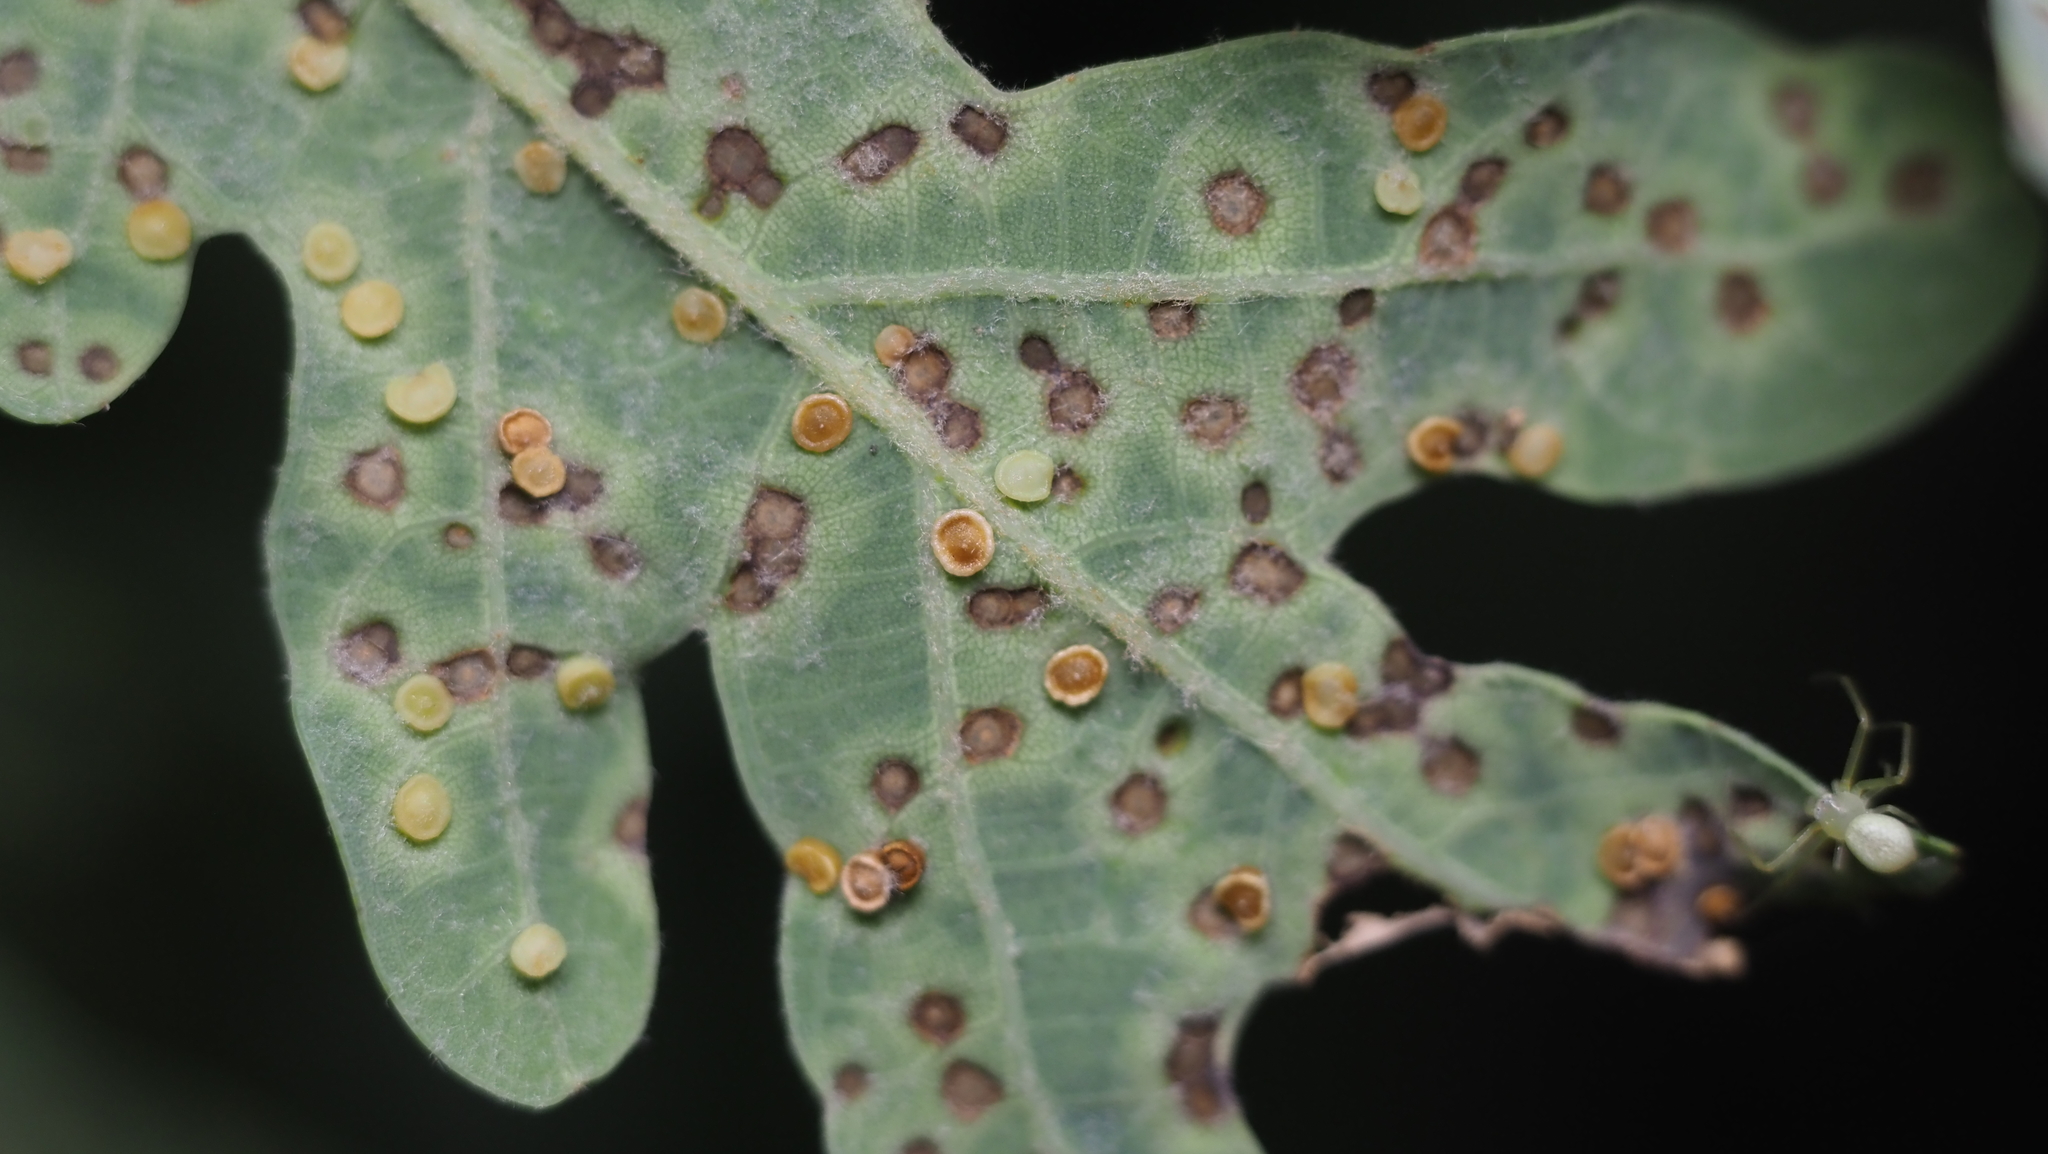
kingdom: Animalia
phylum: Arthropoda
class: Insecta
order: Hymenoptera
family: Cynipidae
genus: Neuroterus
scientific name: Neuroterus
